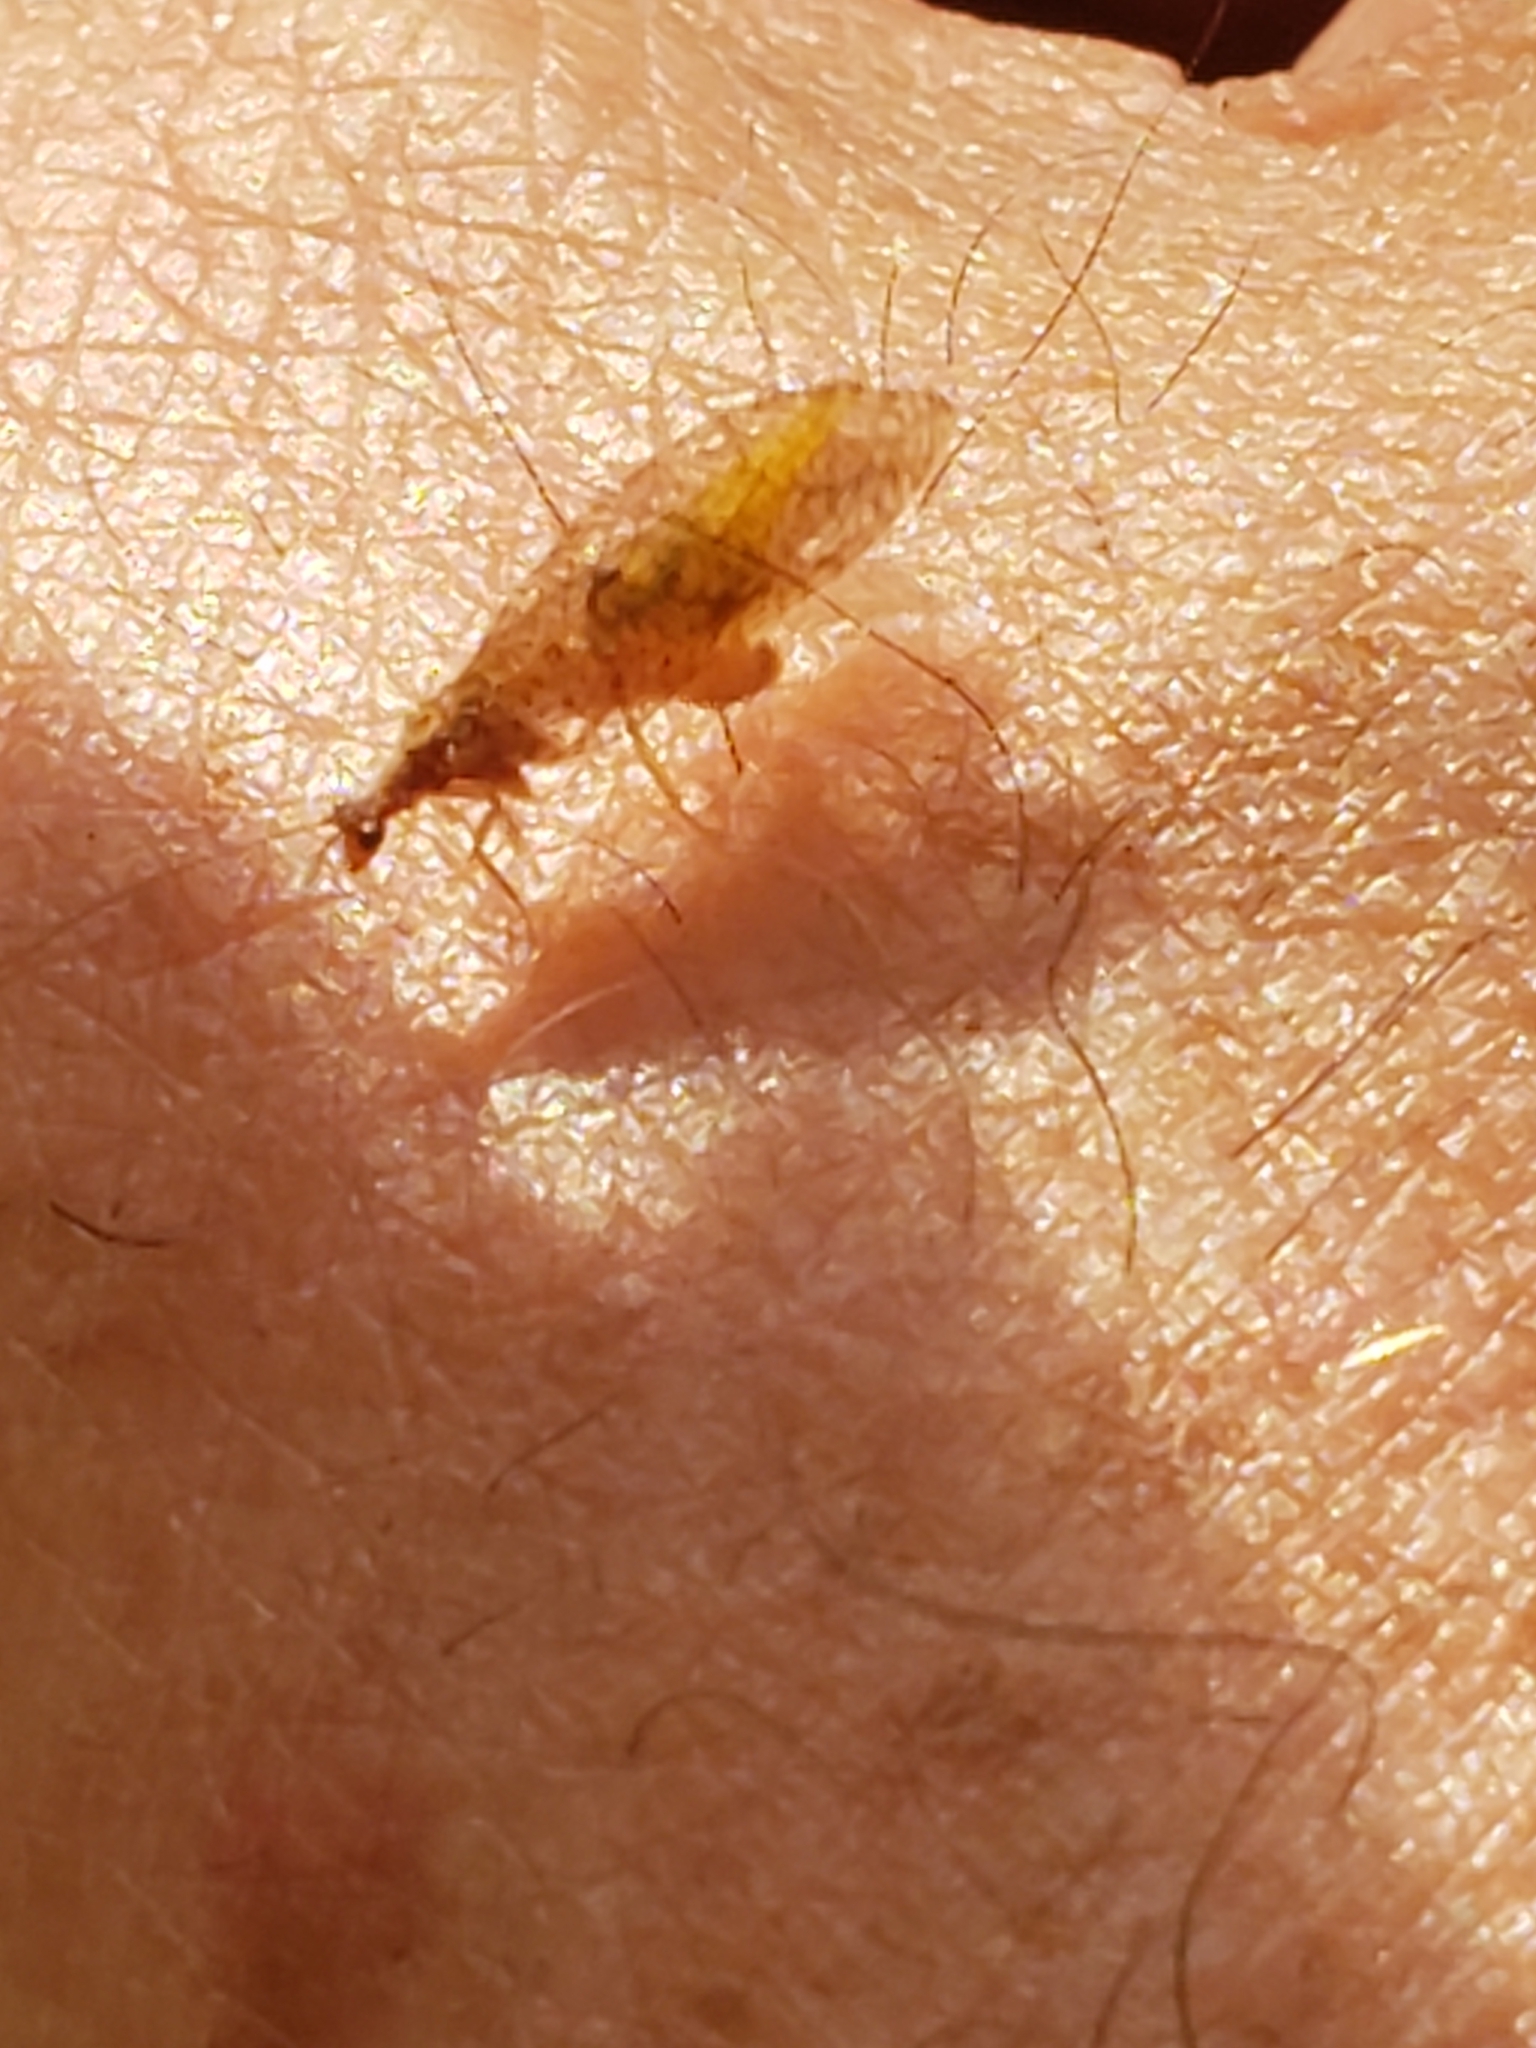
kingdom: Animalia
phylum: Arthropoda
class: Insecta
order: Neuroptera
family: Hemerobiidae
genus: Micromus
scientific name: Micromus posticus
